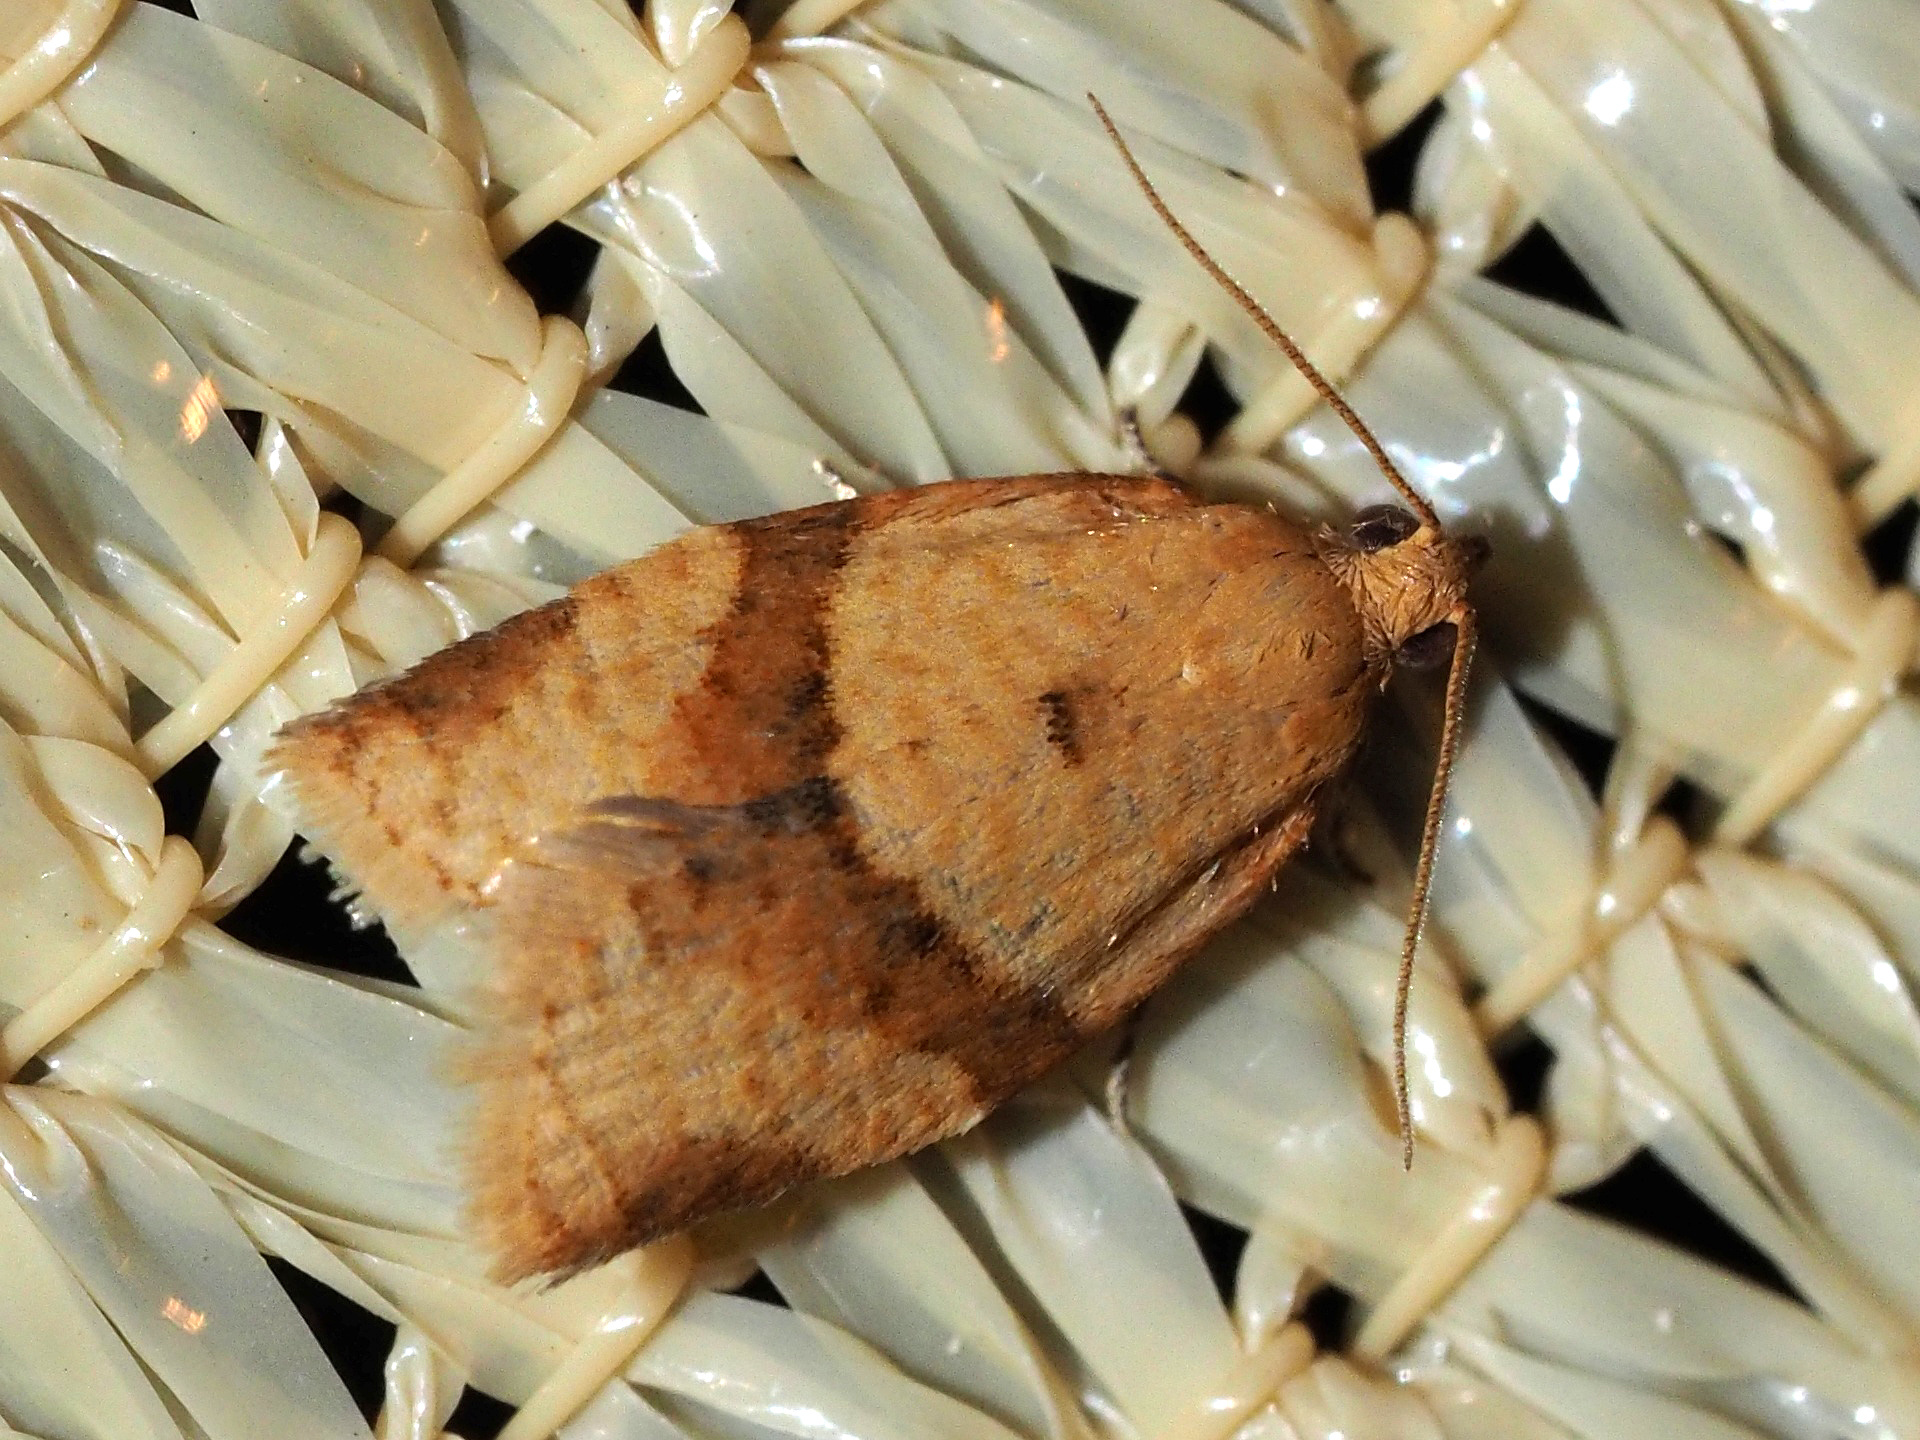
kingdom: Animalia
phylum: Arthropoda
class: Insecta
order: Lepidoptera
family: Tortricidae
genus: Clepsis
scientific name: Clepsis consimilana
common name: Privet tortrix
